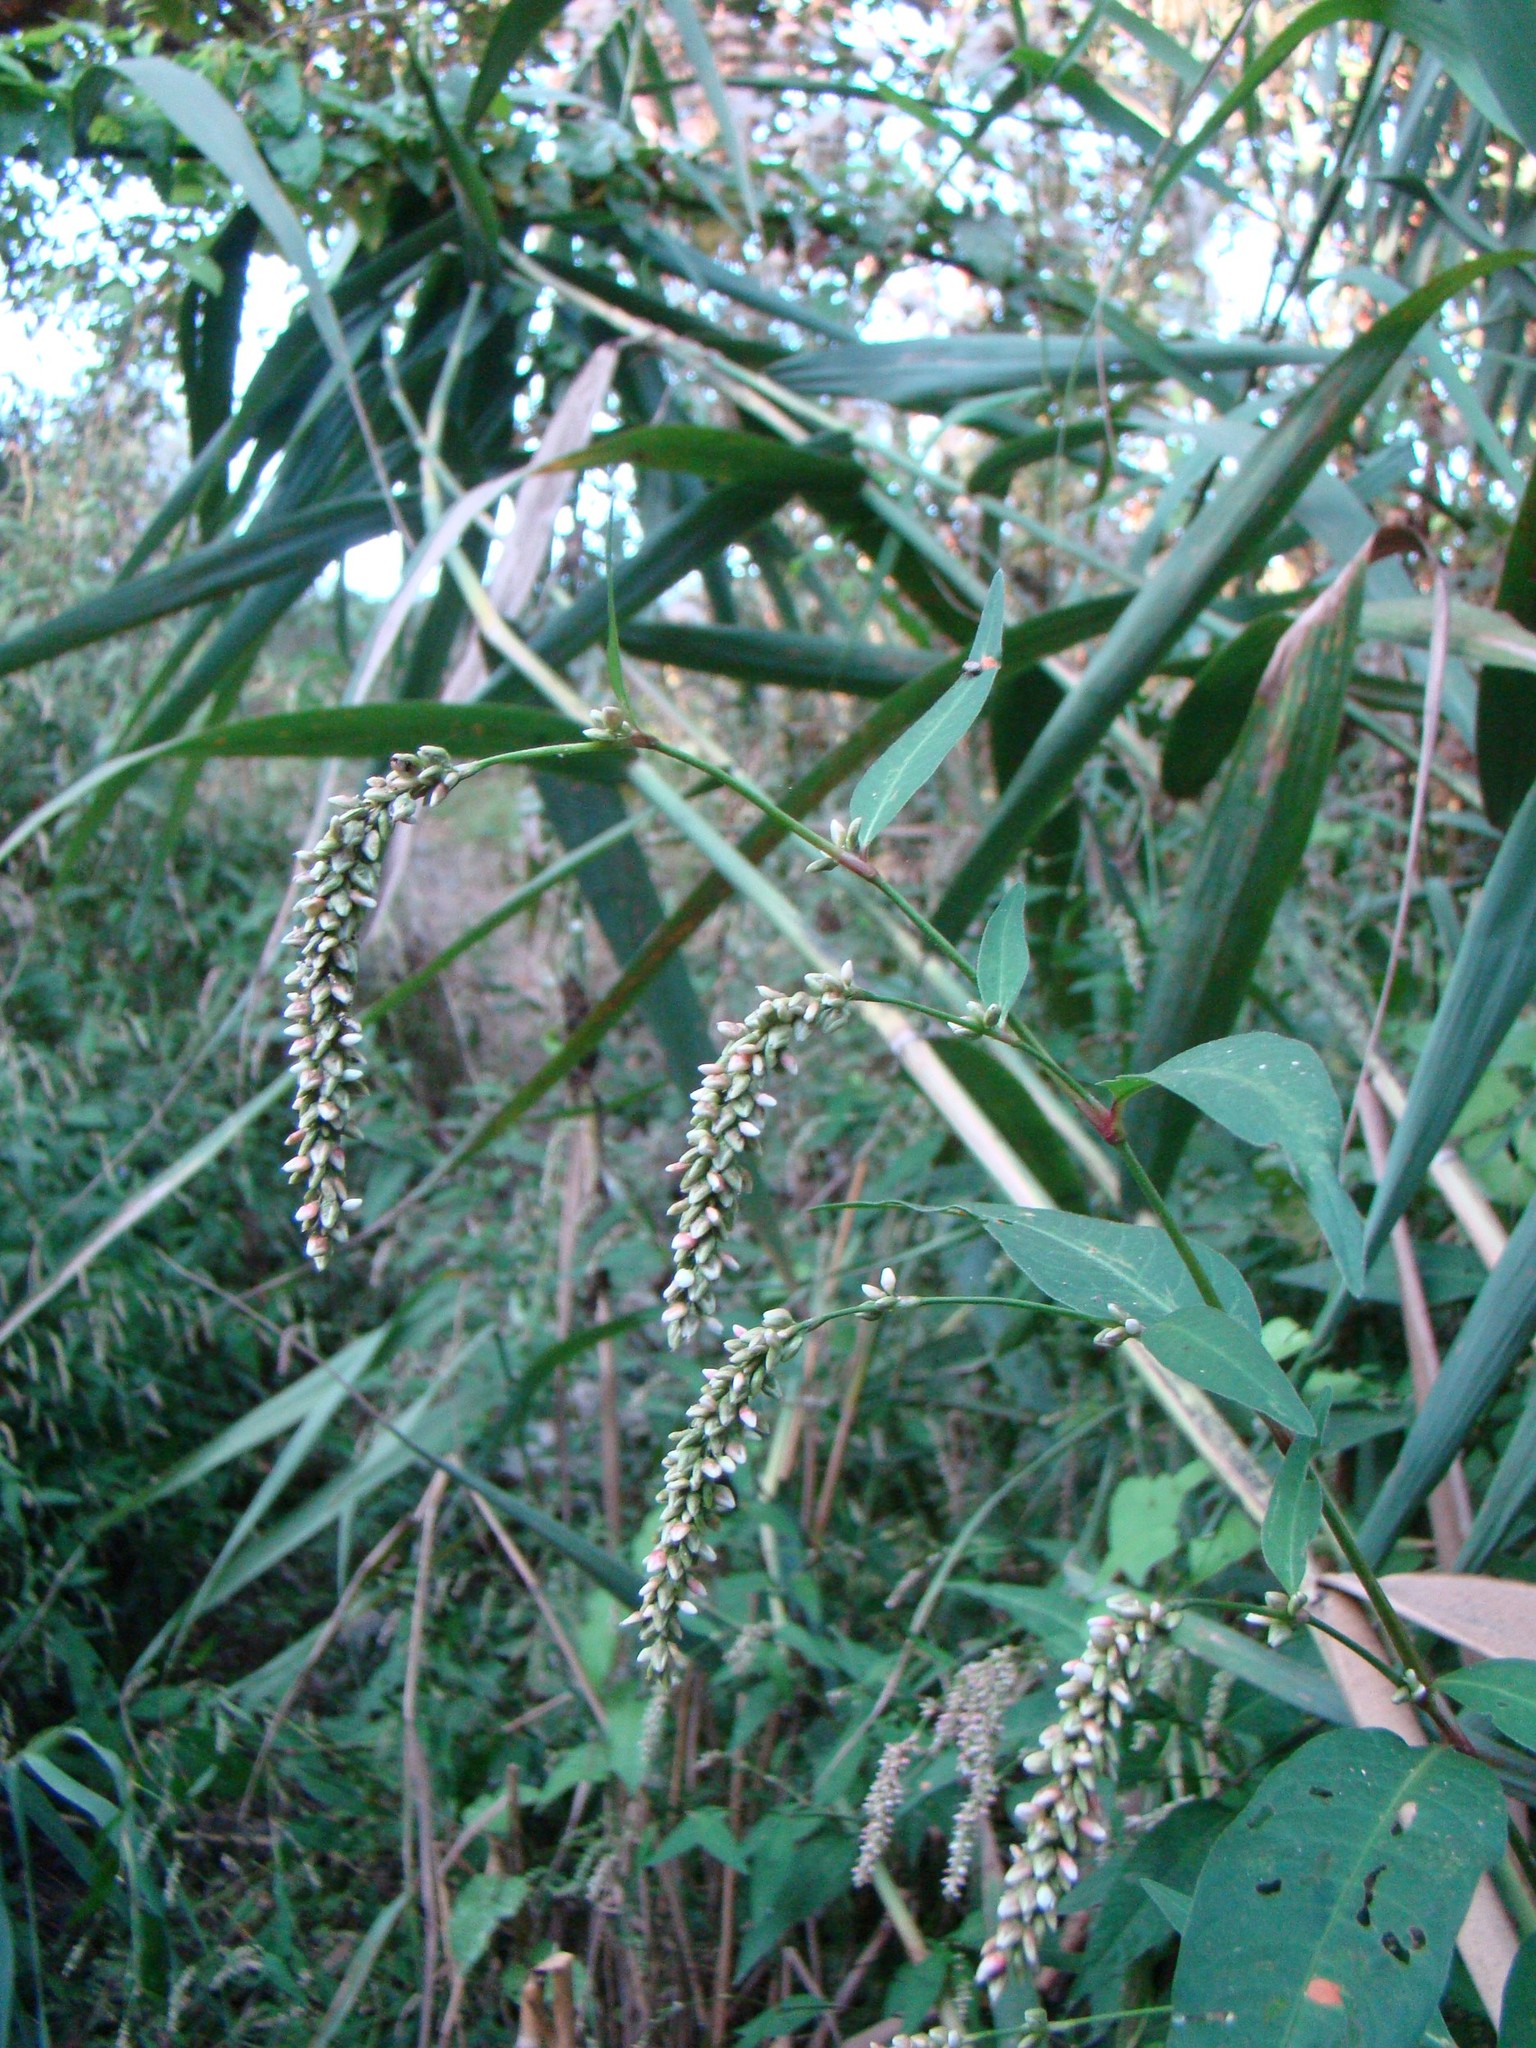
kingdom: Plantae
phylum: Tracheophyta
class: Magnoliopsida
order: Caryophyllales
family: Polygonaceae
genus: Persicaria
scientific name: Persicaria lapathifolia
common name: Curlytop knotweed
